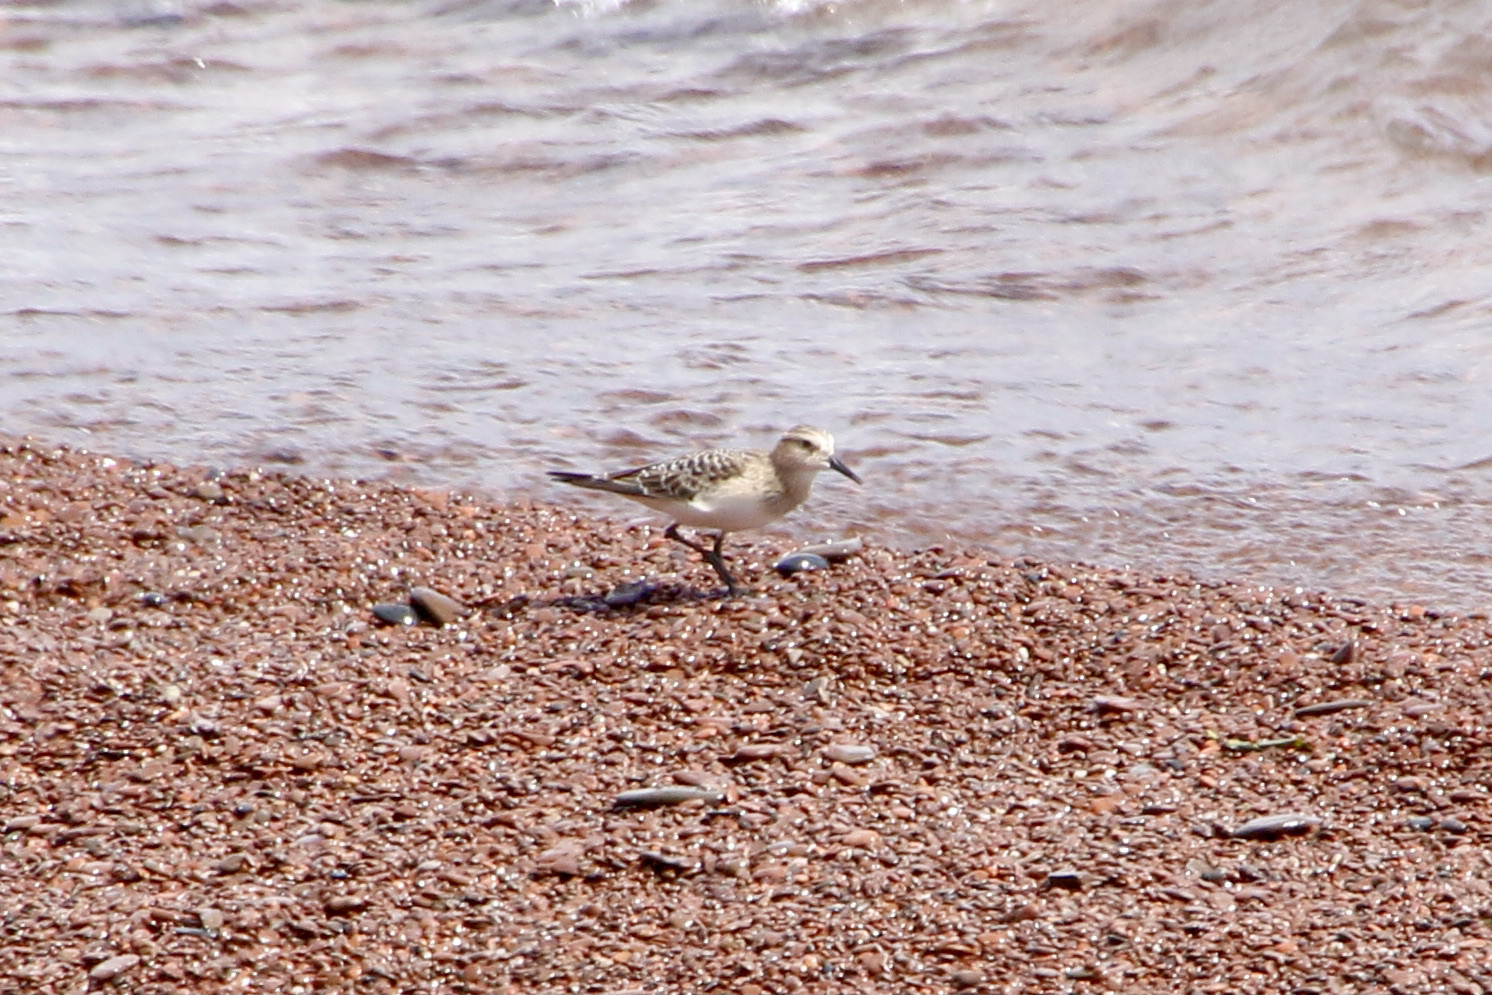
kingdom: Animalia
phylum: Chordata
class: Aves
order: Charadriiformes
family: Scolopacidae
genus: Calidris
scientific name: Calidris bairdii
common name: Baird's sandpiper
